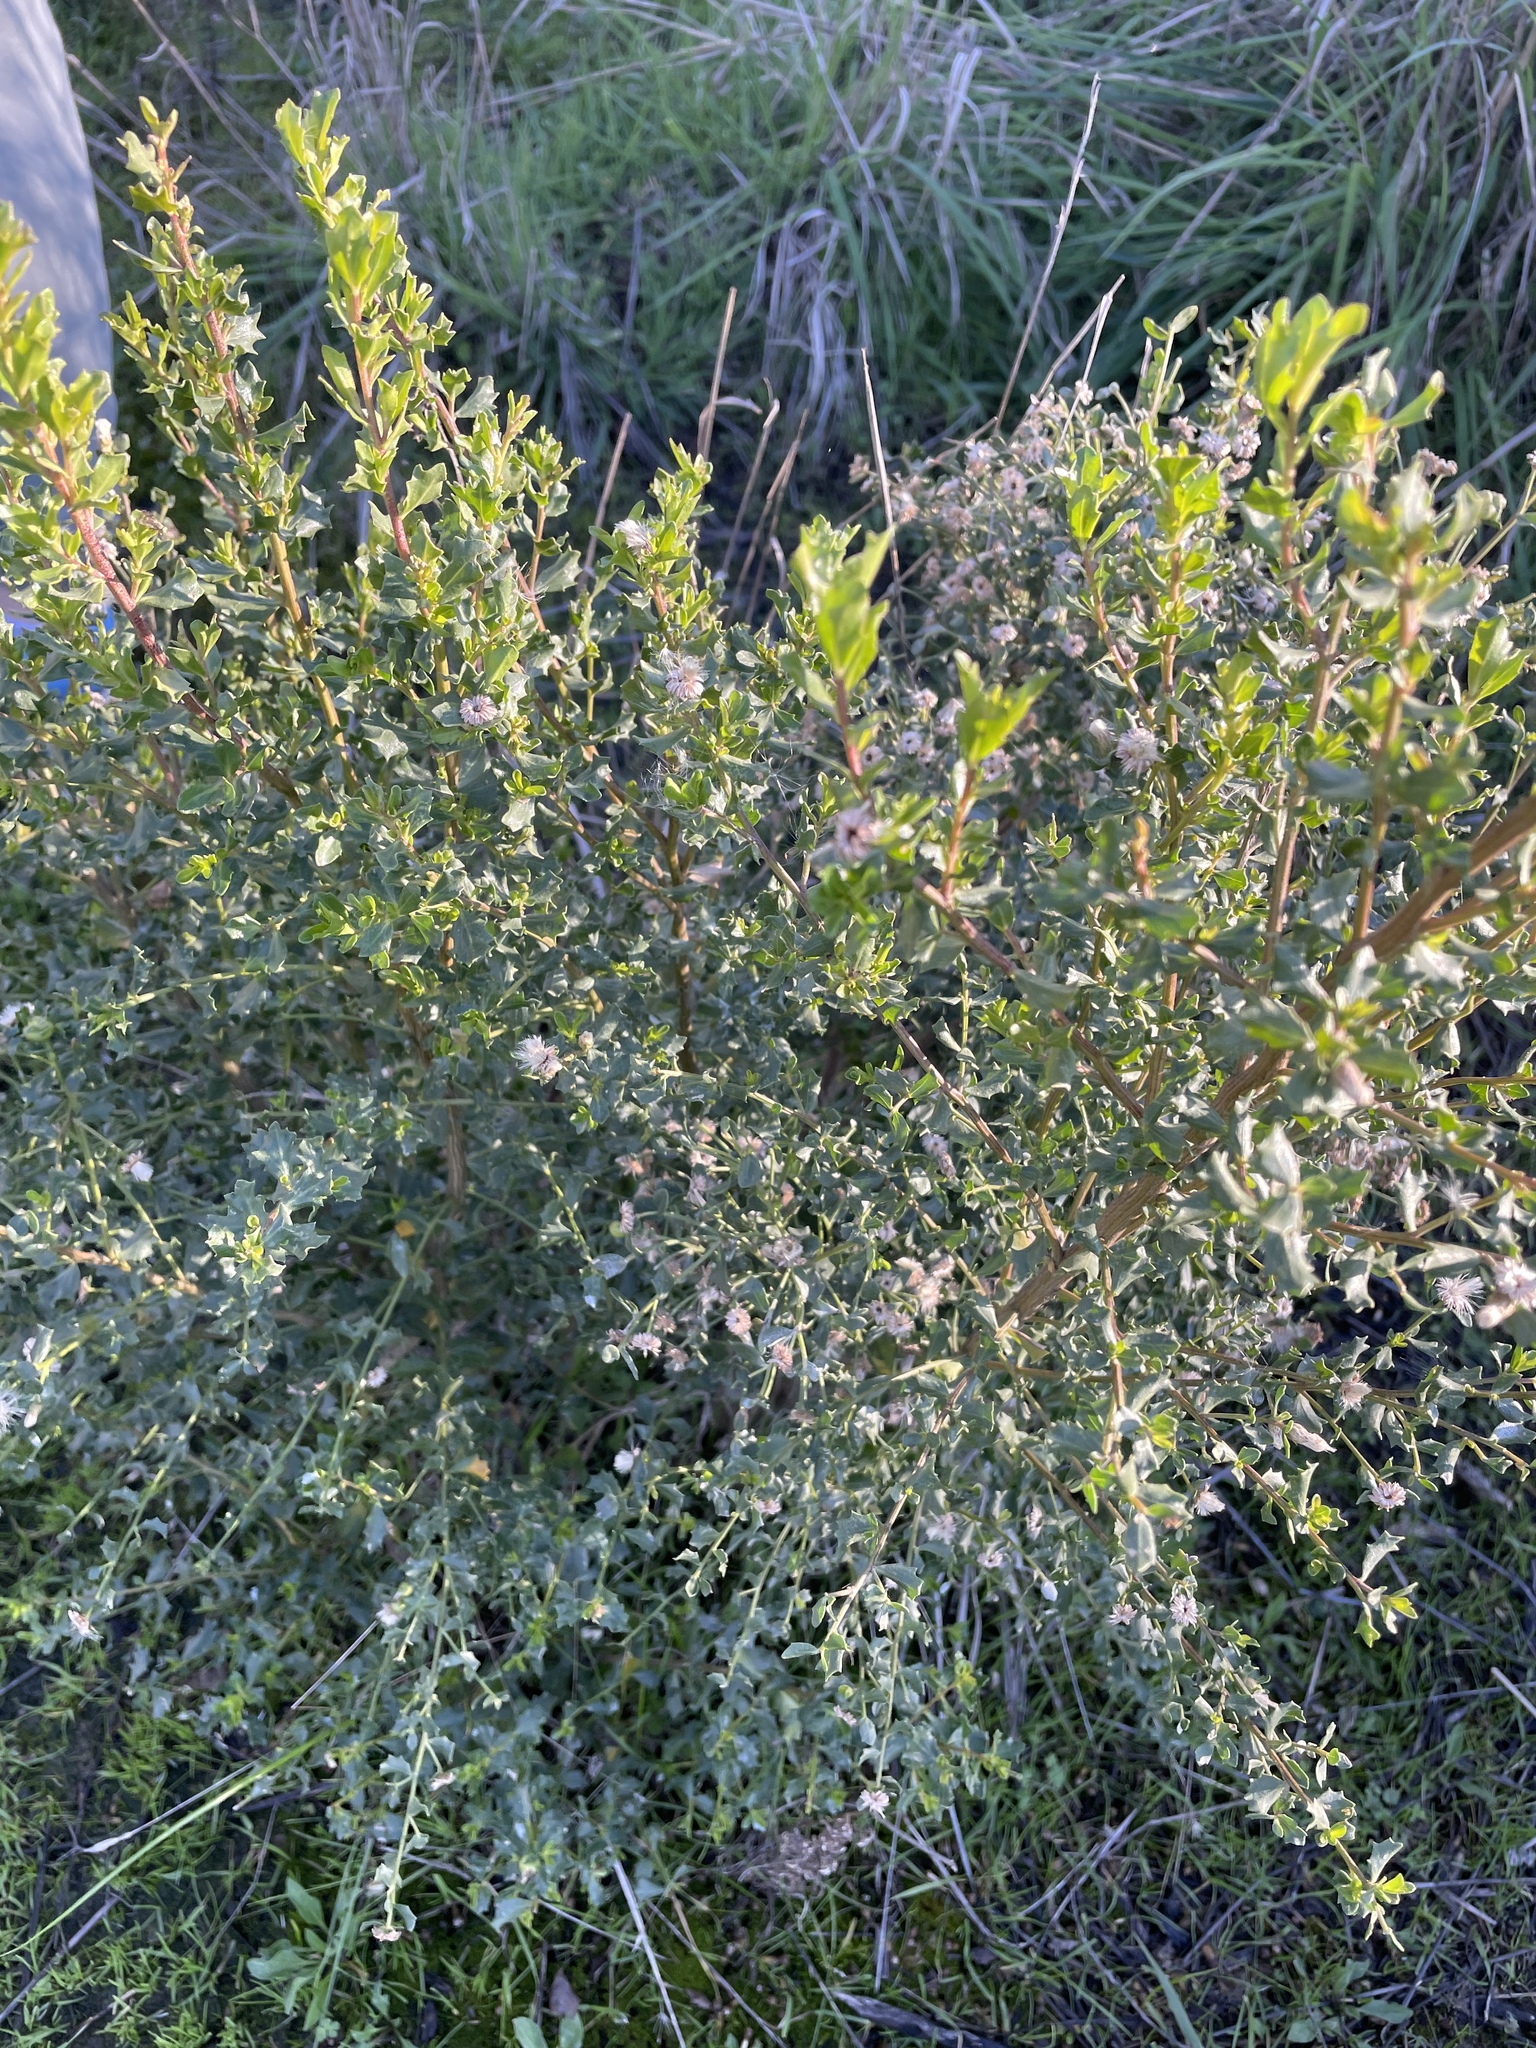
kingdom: Plantae
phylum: Tracheophyta
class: Magnoliopsida
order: Asterales
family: Asteraceae
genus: Baccharis
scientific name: Baccharis pilularis
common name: Coyotebrush
